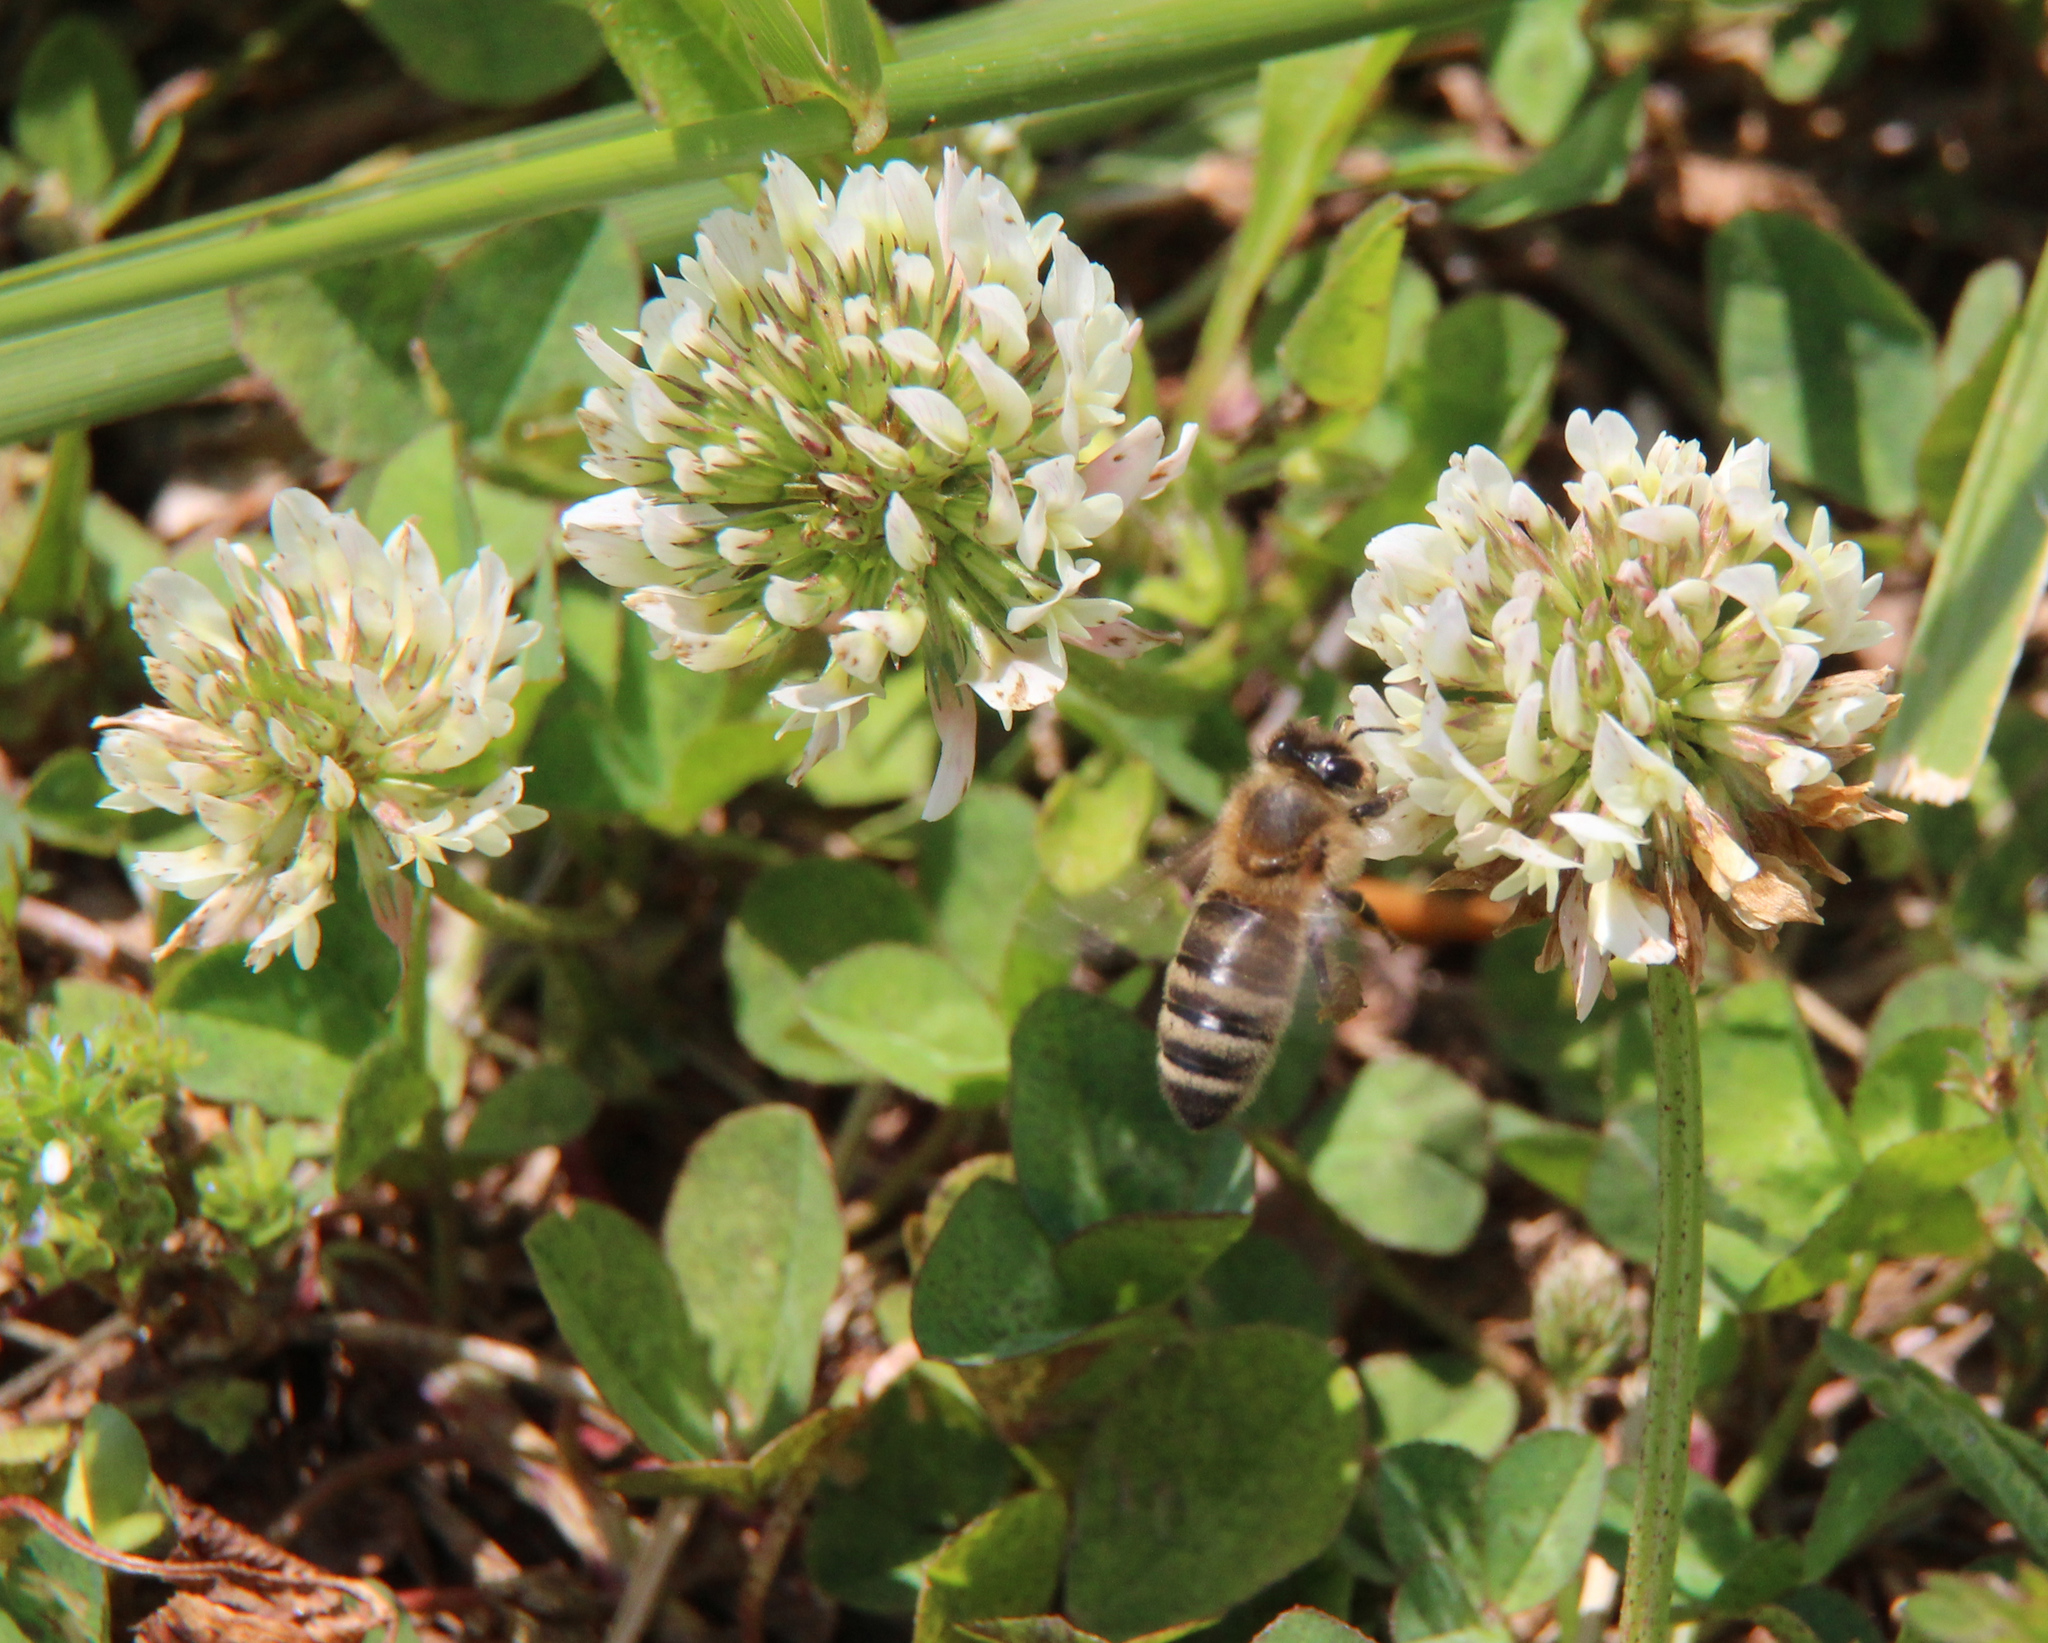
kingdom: Animalia
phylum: Arthropoda
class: Insecta
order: Hymenoptera
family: Apidae
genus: Apis
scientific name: Apis mellifera
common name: Honey bee
